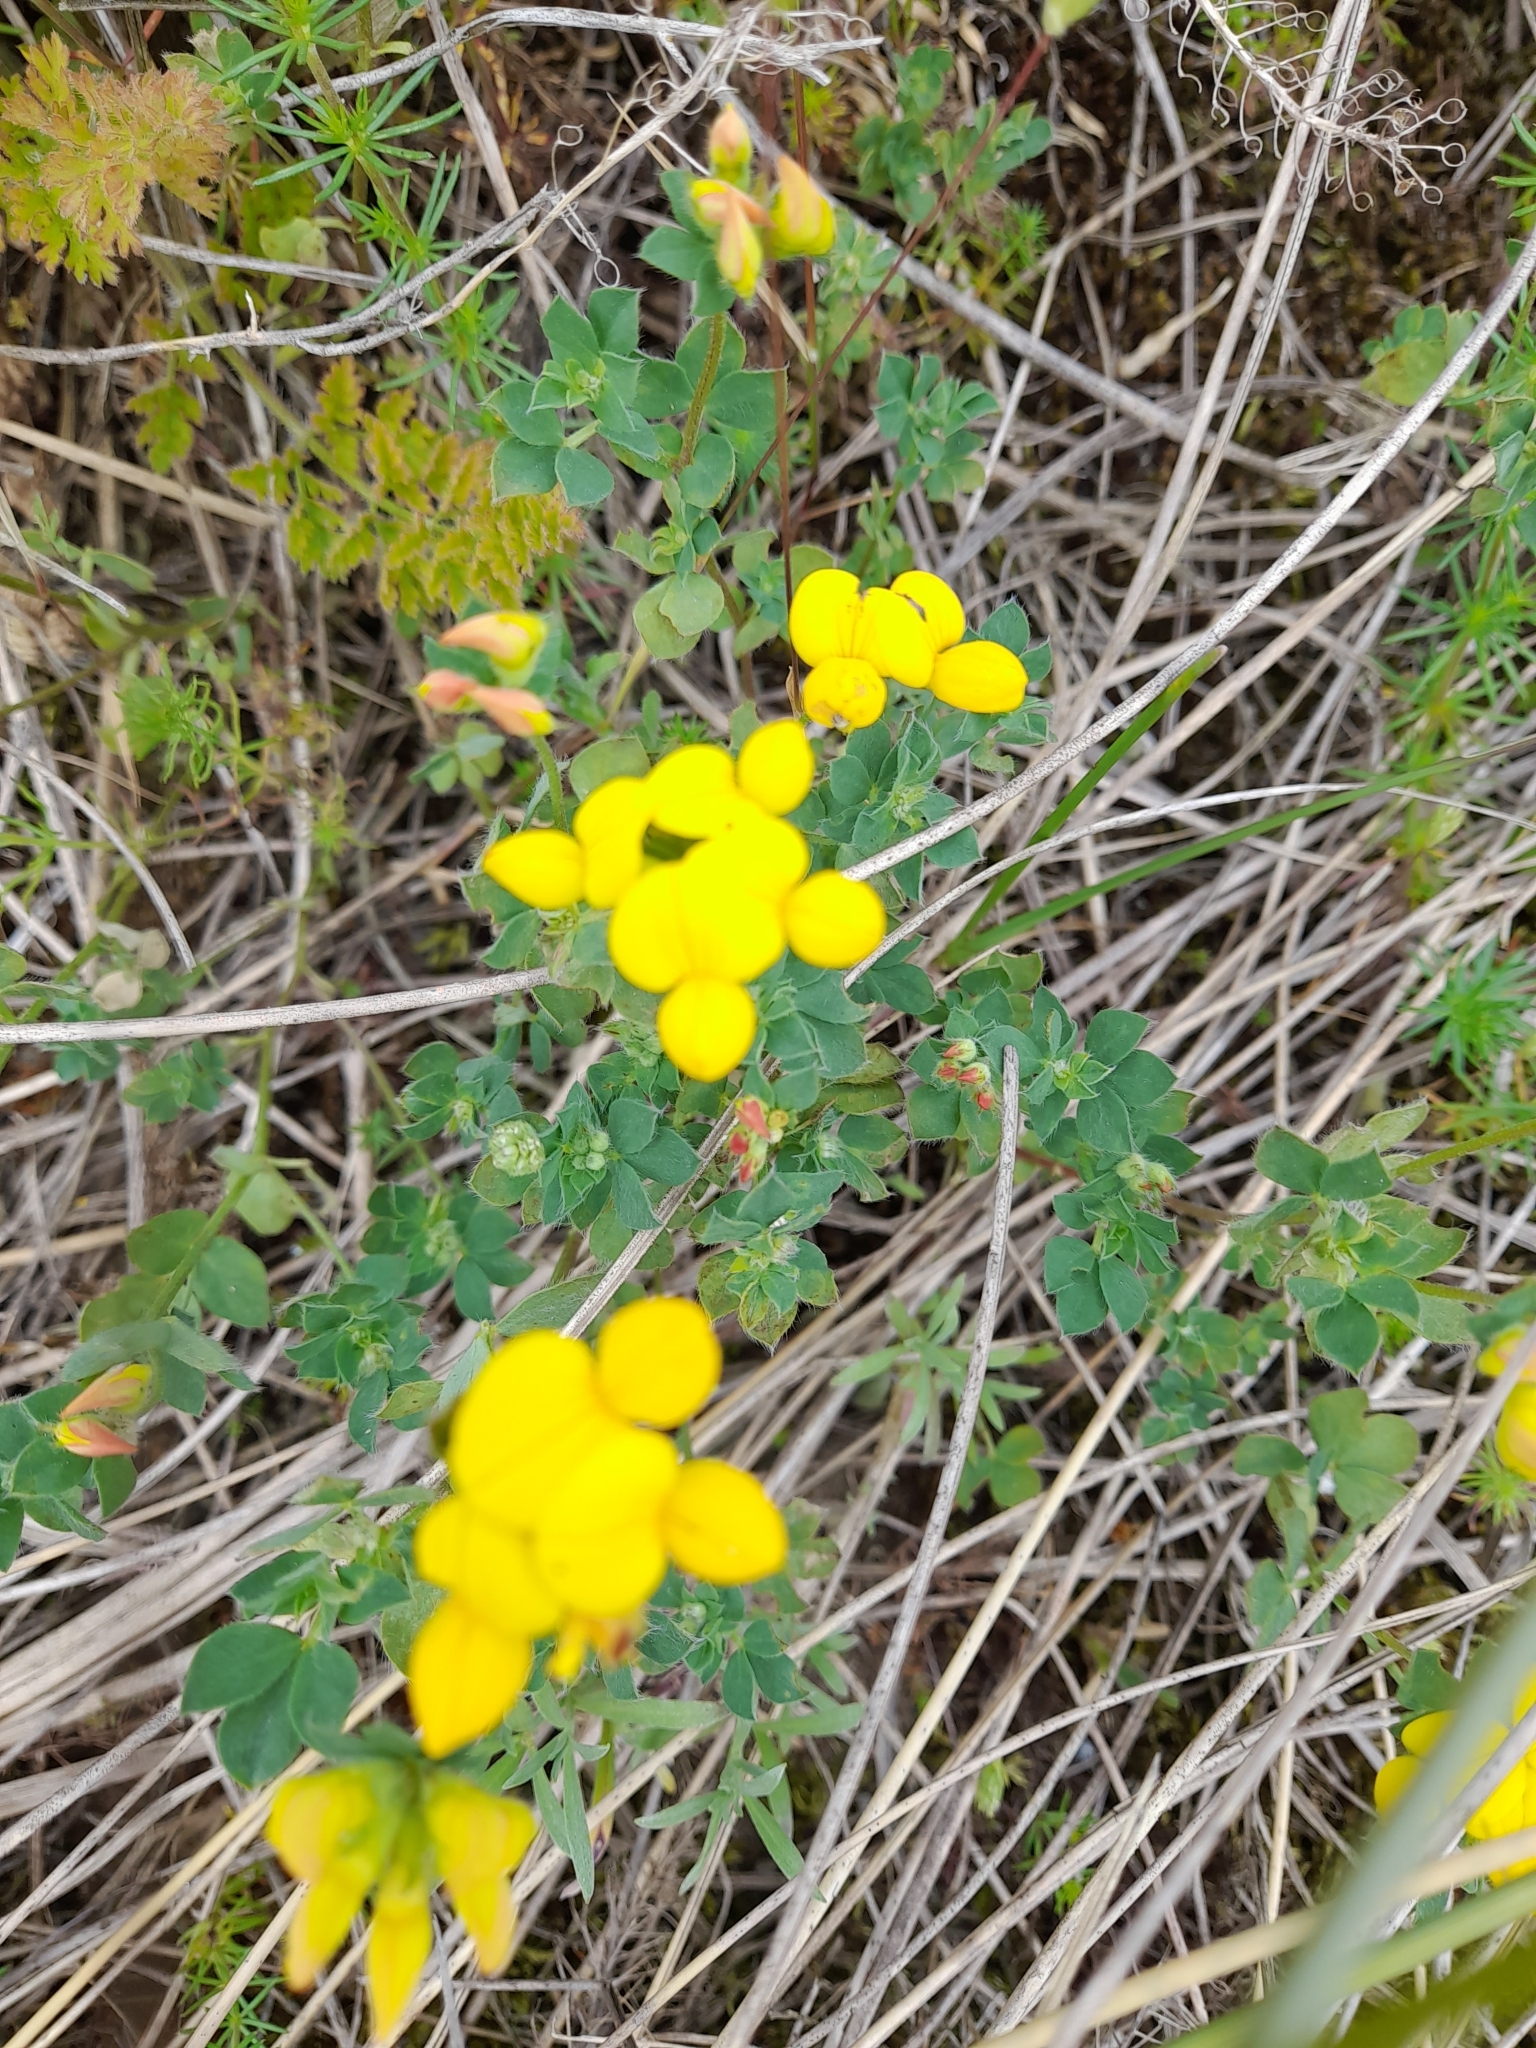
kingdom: Plantae
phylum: Tracheophyta
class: Magnoliopsida
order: Fabales
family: Fabaceae
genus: Lotus
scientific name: Lotus corniculatus
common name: Common bird's-foot-trefoil
